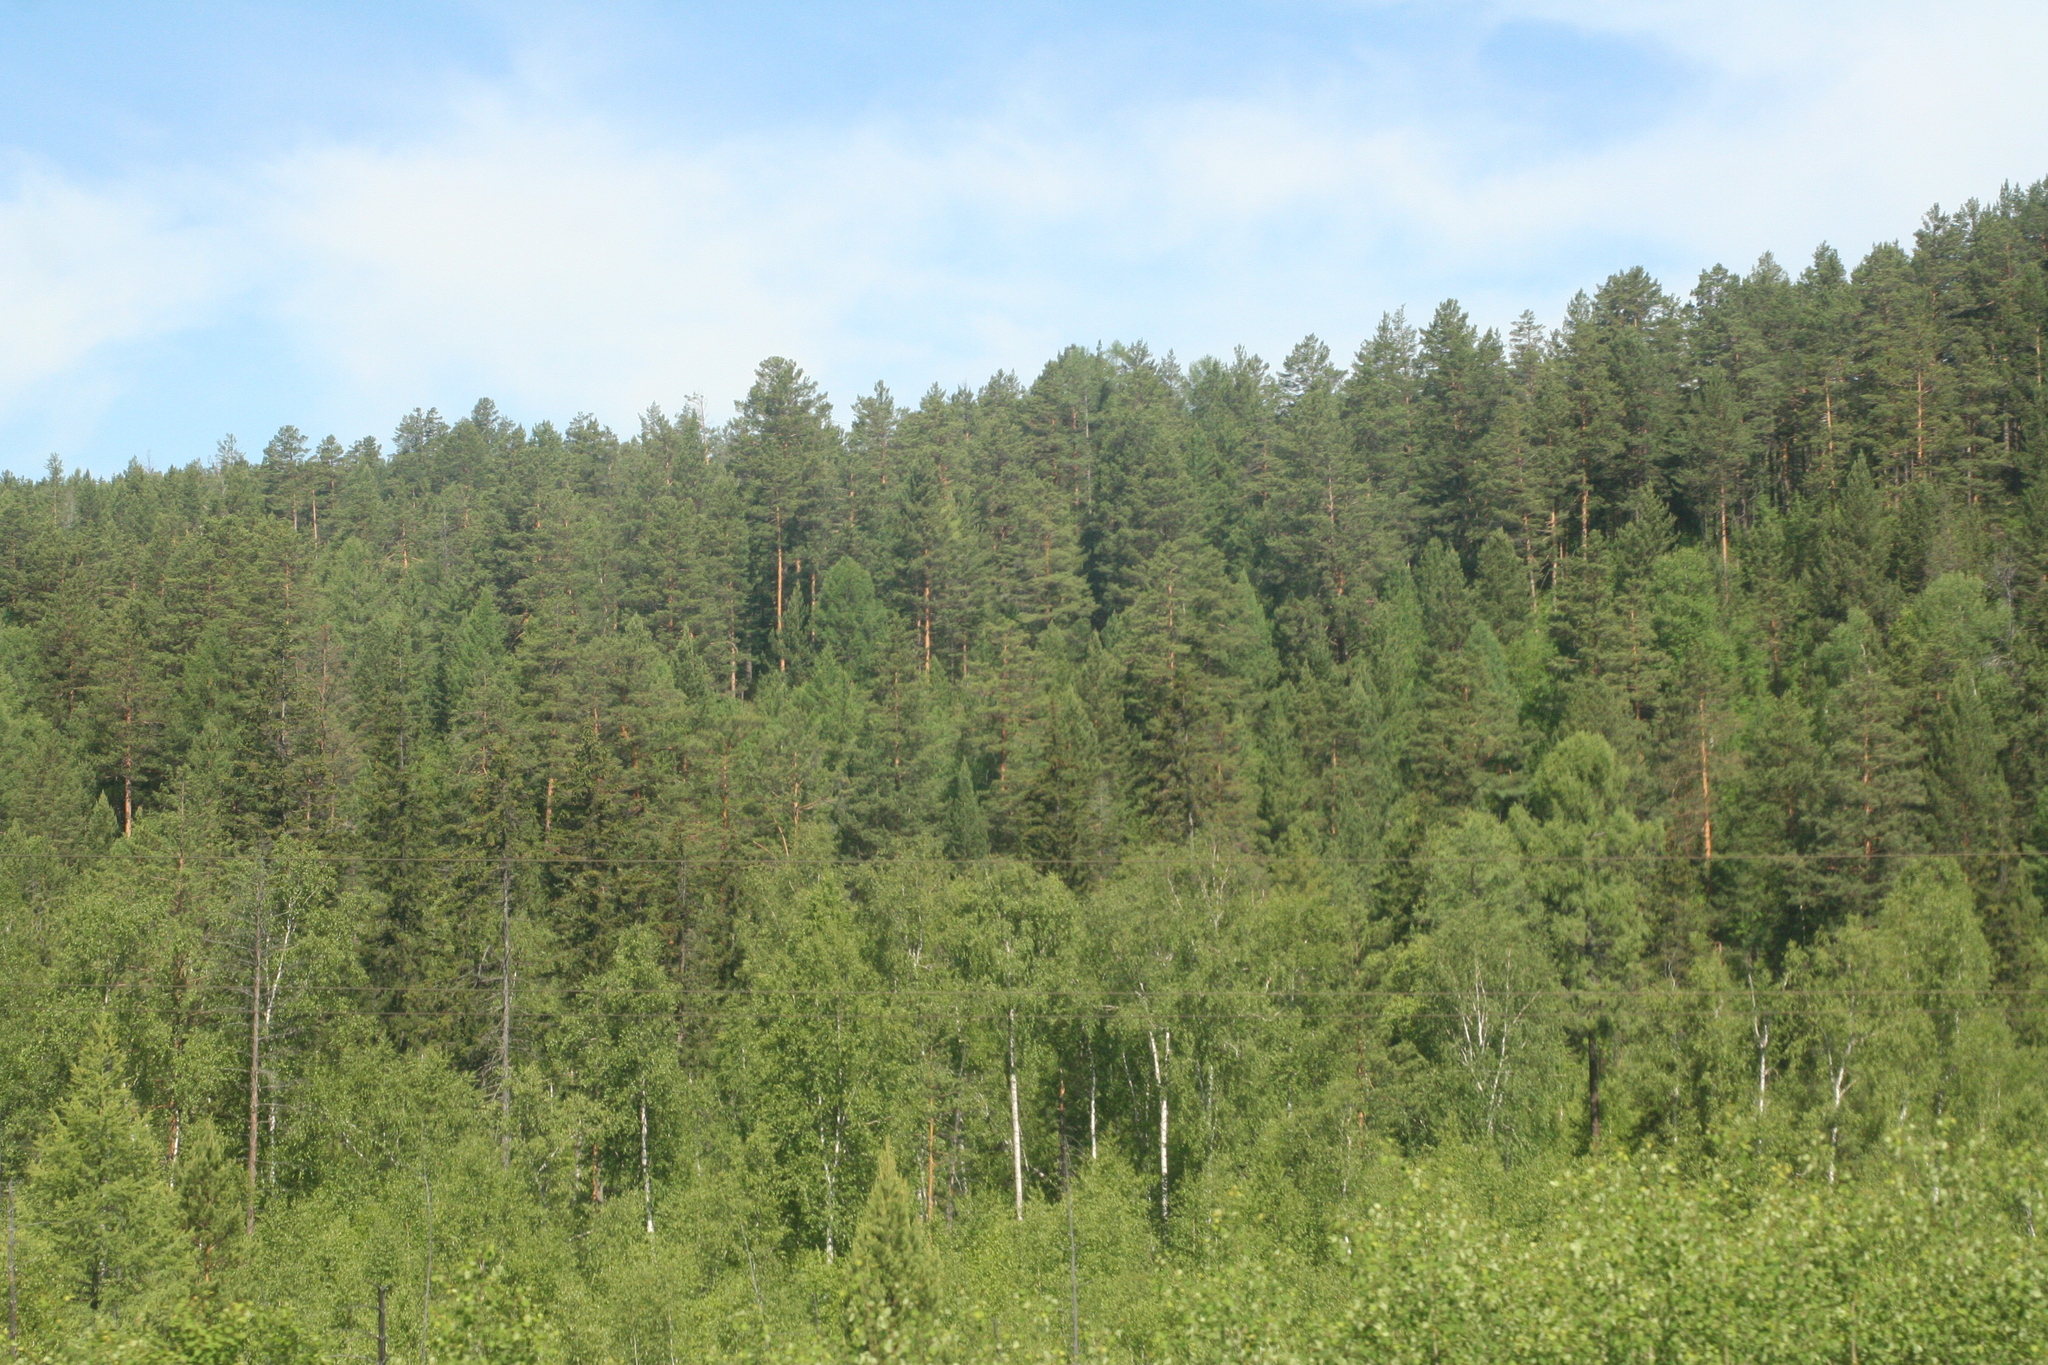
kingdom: Plantae
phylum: Tracheophyta
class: Pinopsida
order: Pinales
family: Pinaceae
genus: Pinus
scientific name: Pinus sylvestris
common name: Scots pine
